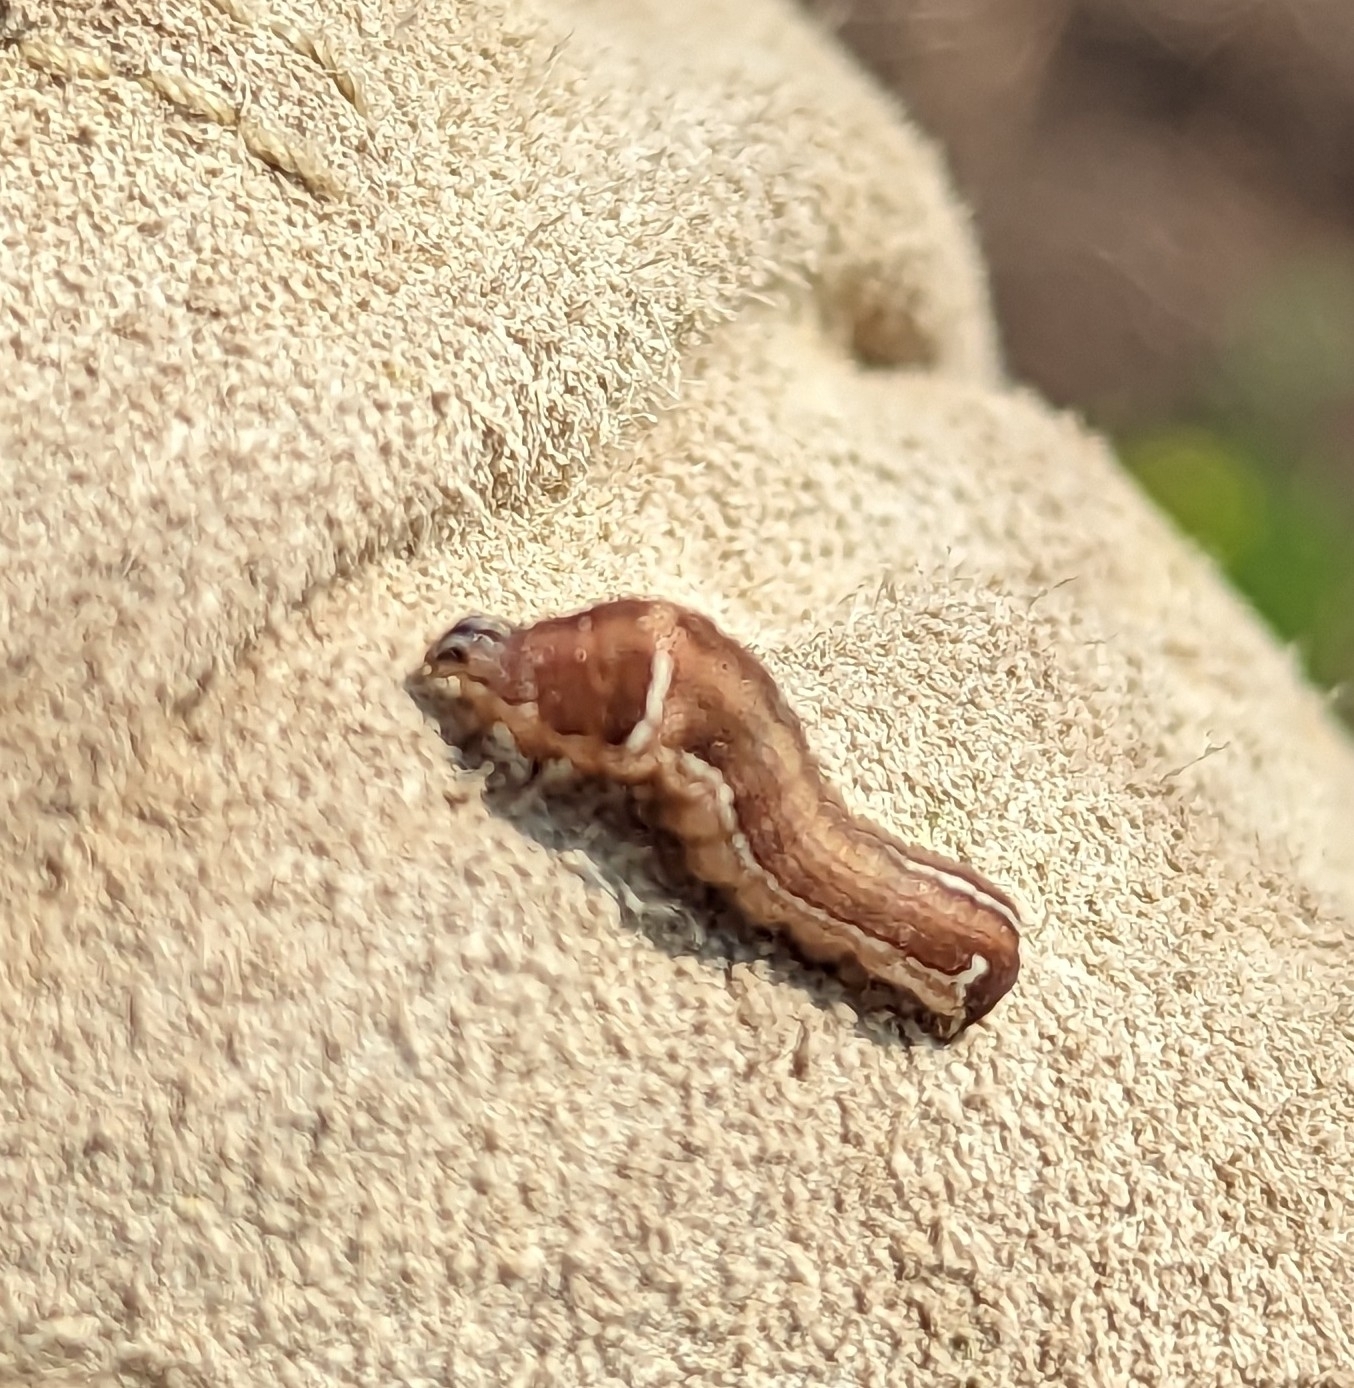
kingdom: Animalia
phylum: Arthropoda
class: Insecta
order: Lepidoptera
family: Noctuidae
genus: Galgula
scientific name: Galgula partita
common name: Wedgeling
